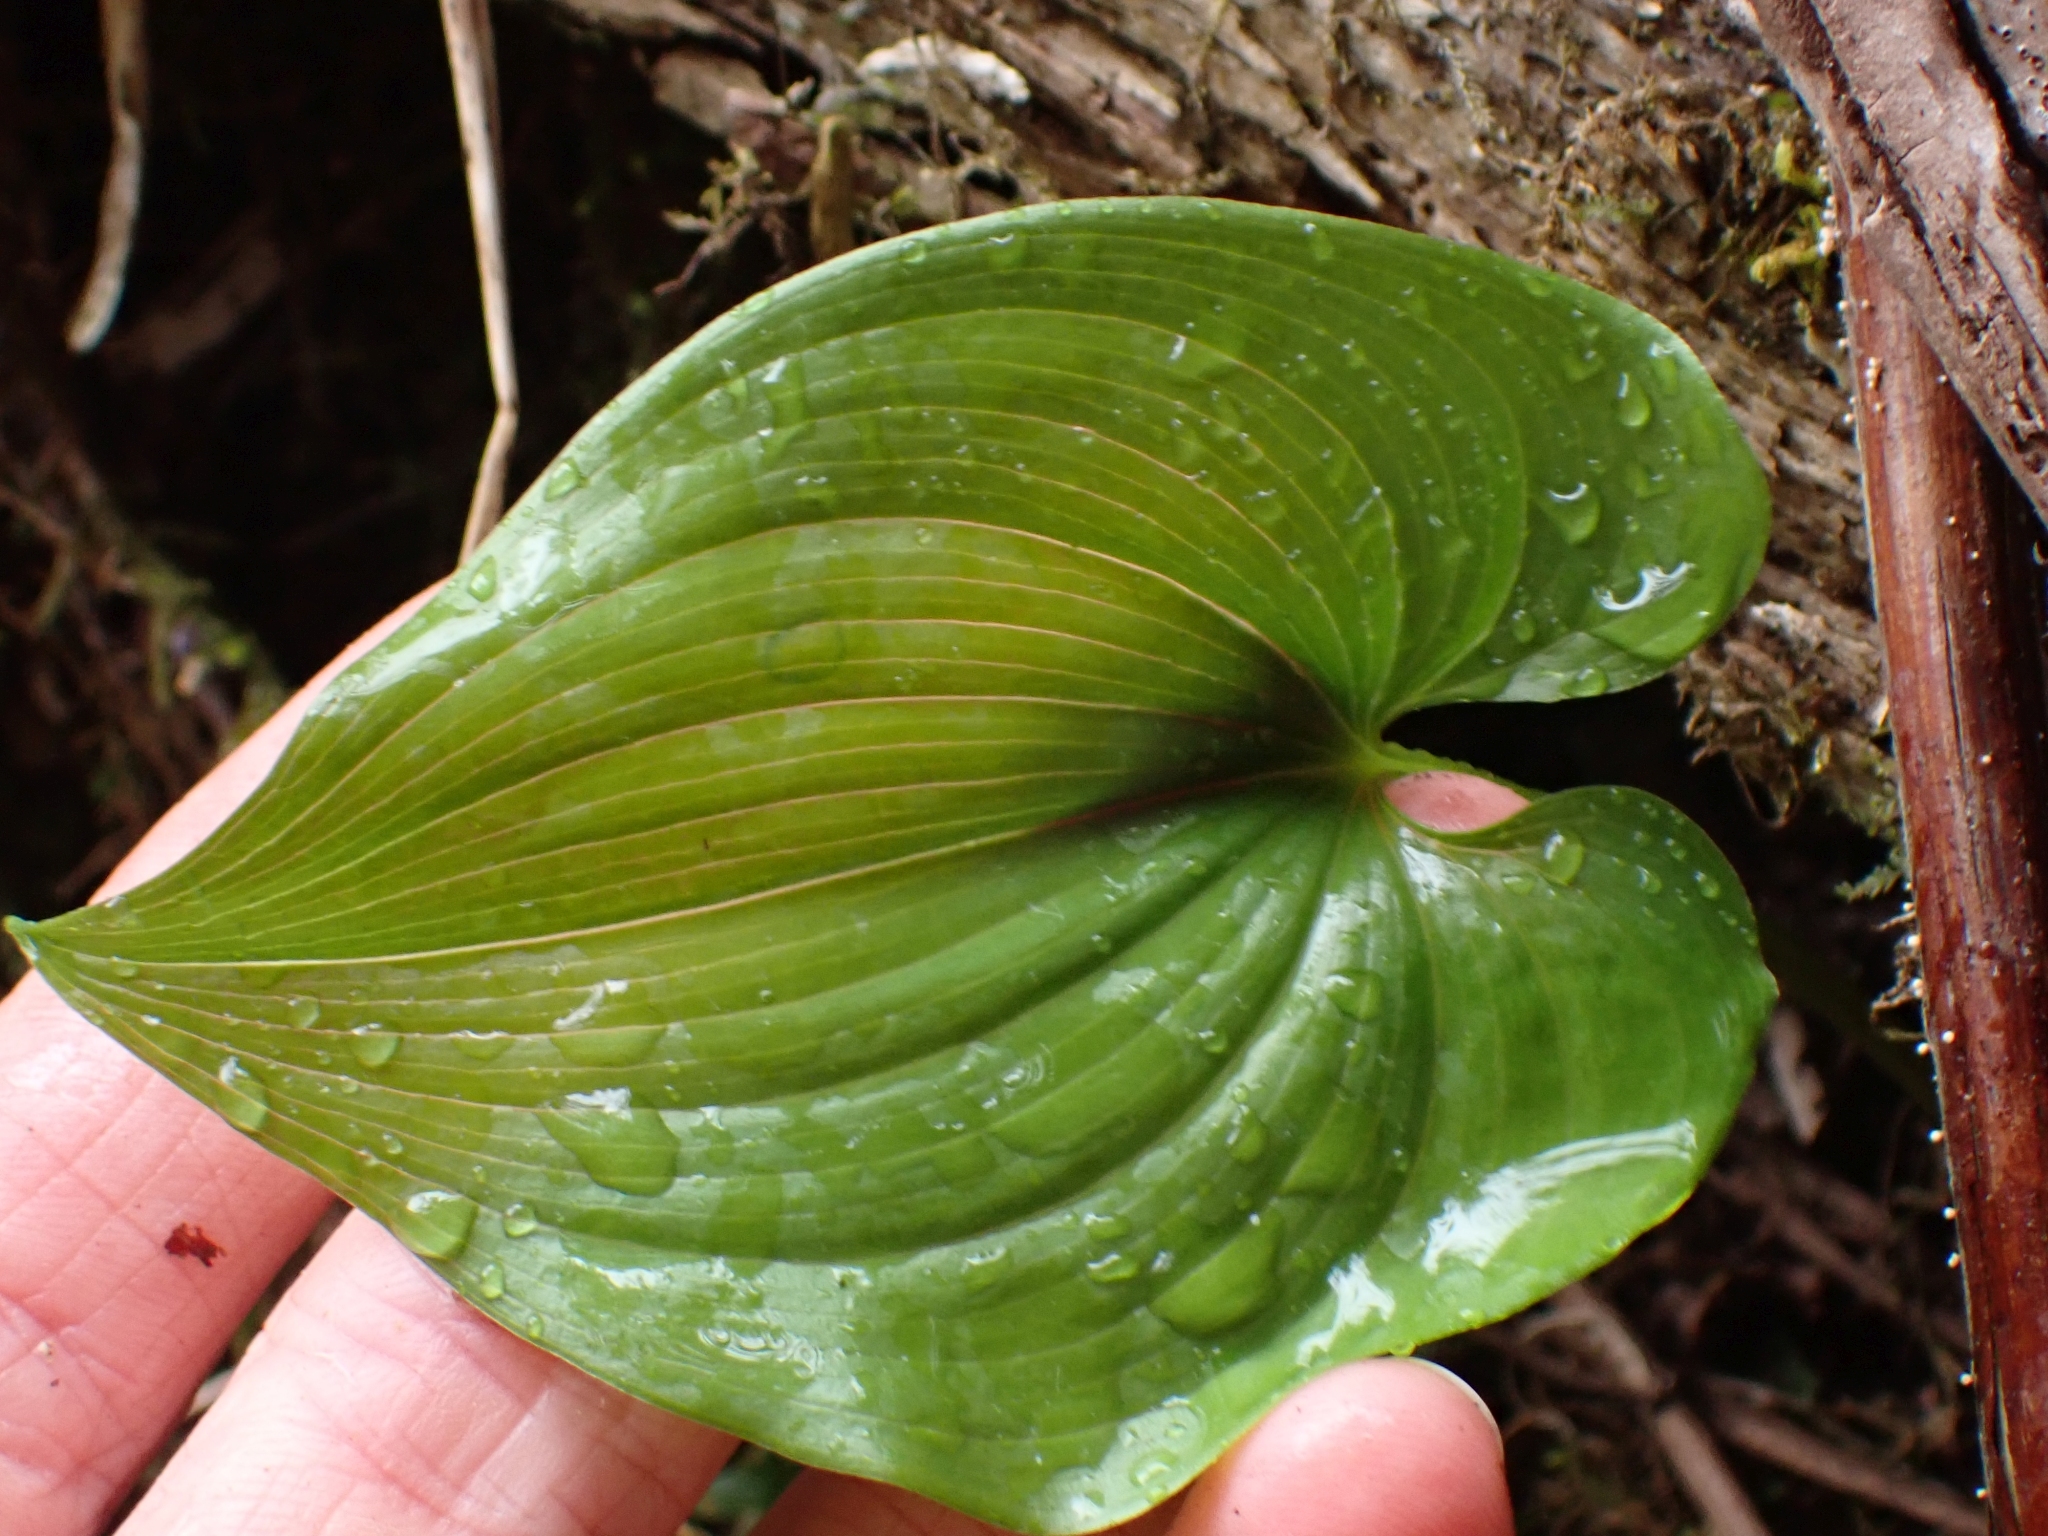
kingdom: Plantae
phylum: Tracheophyta
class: Liliopsida
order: Asparagales
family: Asparagaceae
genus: Maianthemum
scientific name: Maianthemum dilatatum
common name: False lily-of-the-valley
